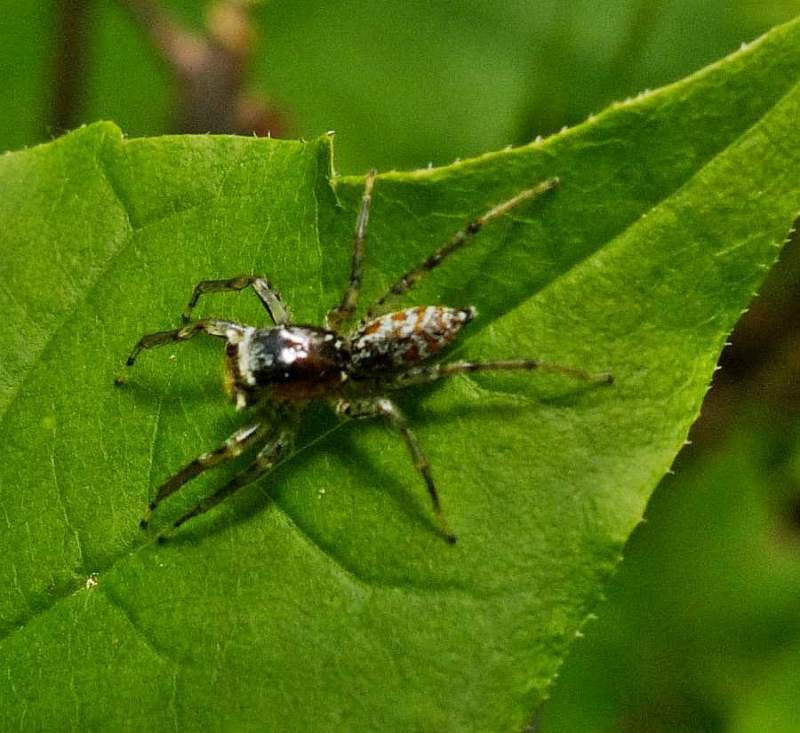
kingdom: Animalia
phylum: Arthropoda
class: Arachnida
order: Araneae
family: Salticidae
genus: Maevia
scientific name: Maevia inclemens
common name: Dimorphic jumper
